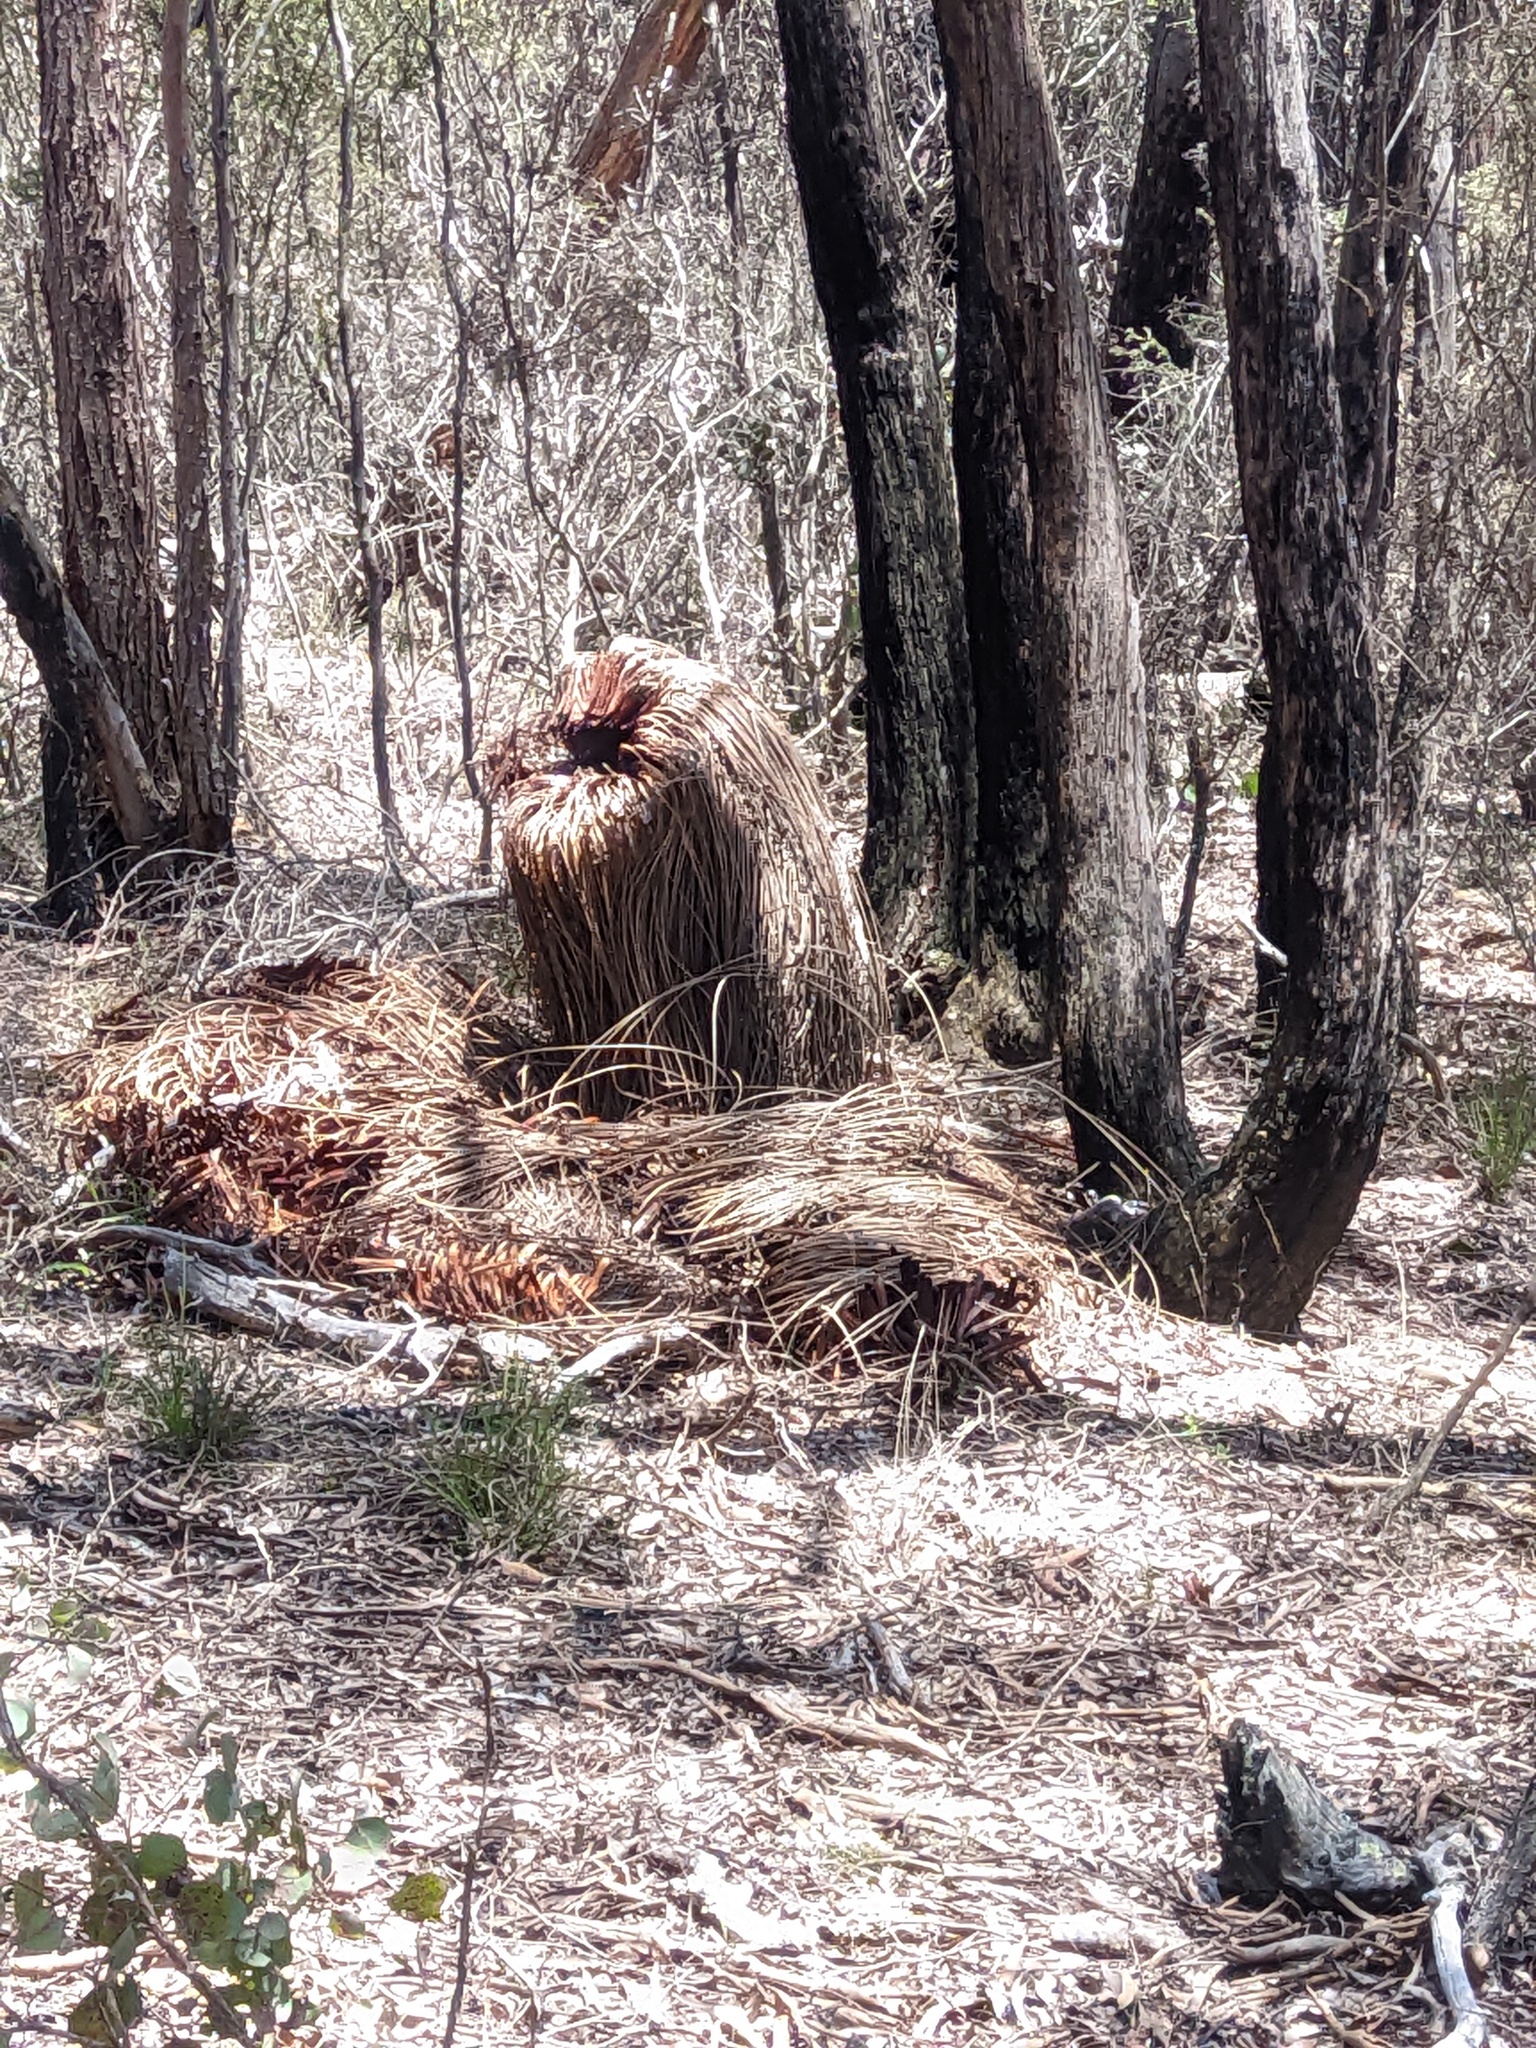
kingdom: Chromista
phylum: Oomycota
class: Peronosporea
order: Peronosporales
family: Peronosporaceae
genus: Phytophthora
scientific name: Phytophthora cinnamomi
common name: Root rot
